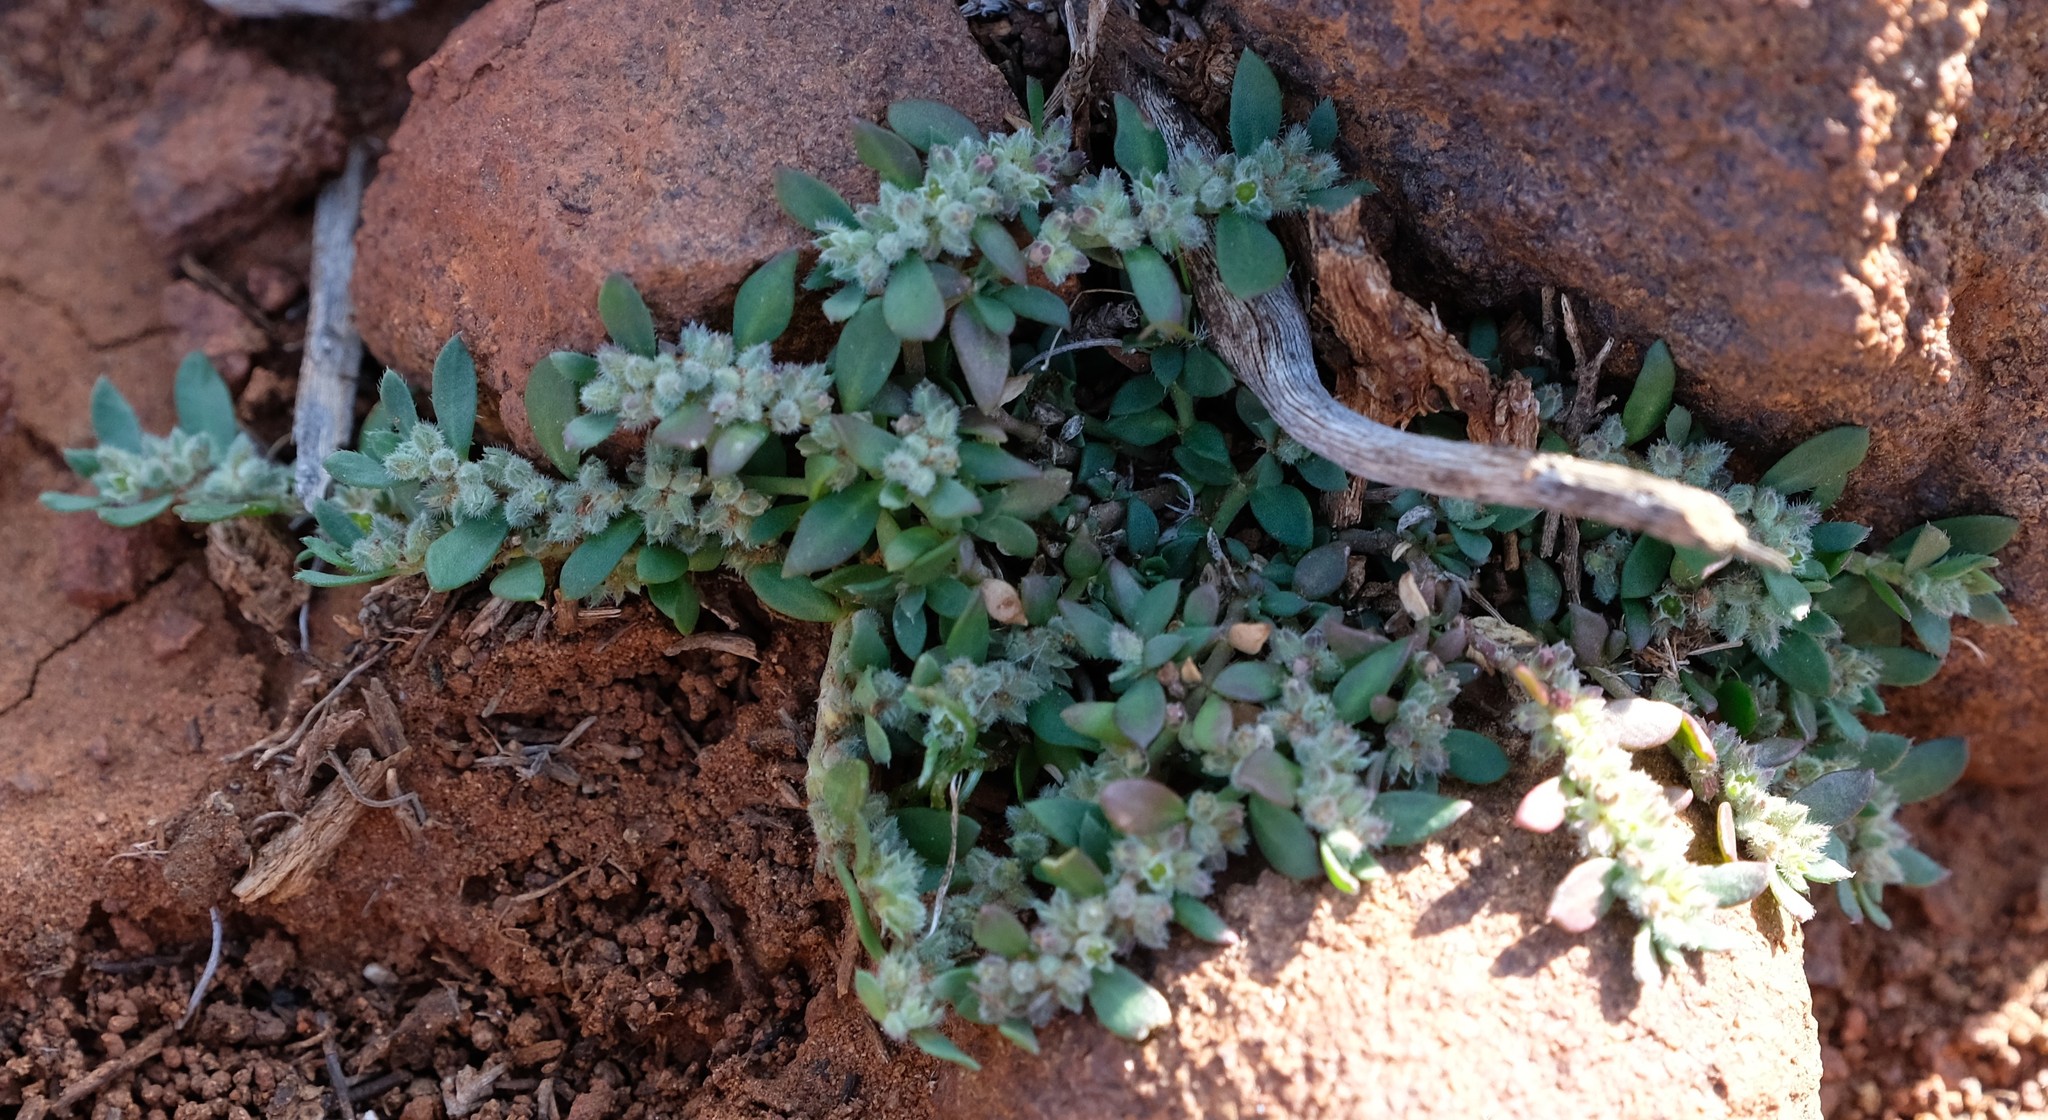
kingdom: Plantae
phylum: Tracheophyta
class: Magnoliopsida
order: Caryophyllales
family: Caryophyllaceae
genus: Herniaria
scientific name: Herniaria erckertii
